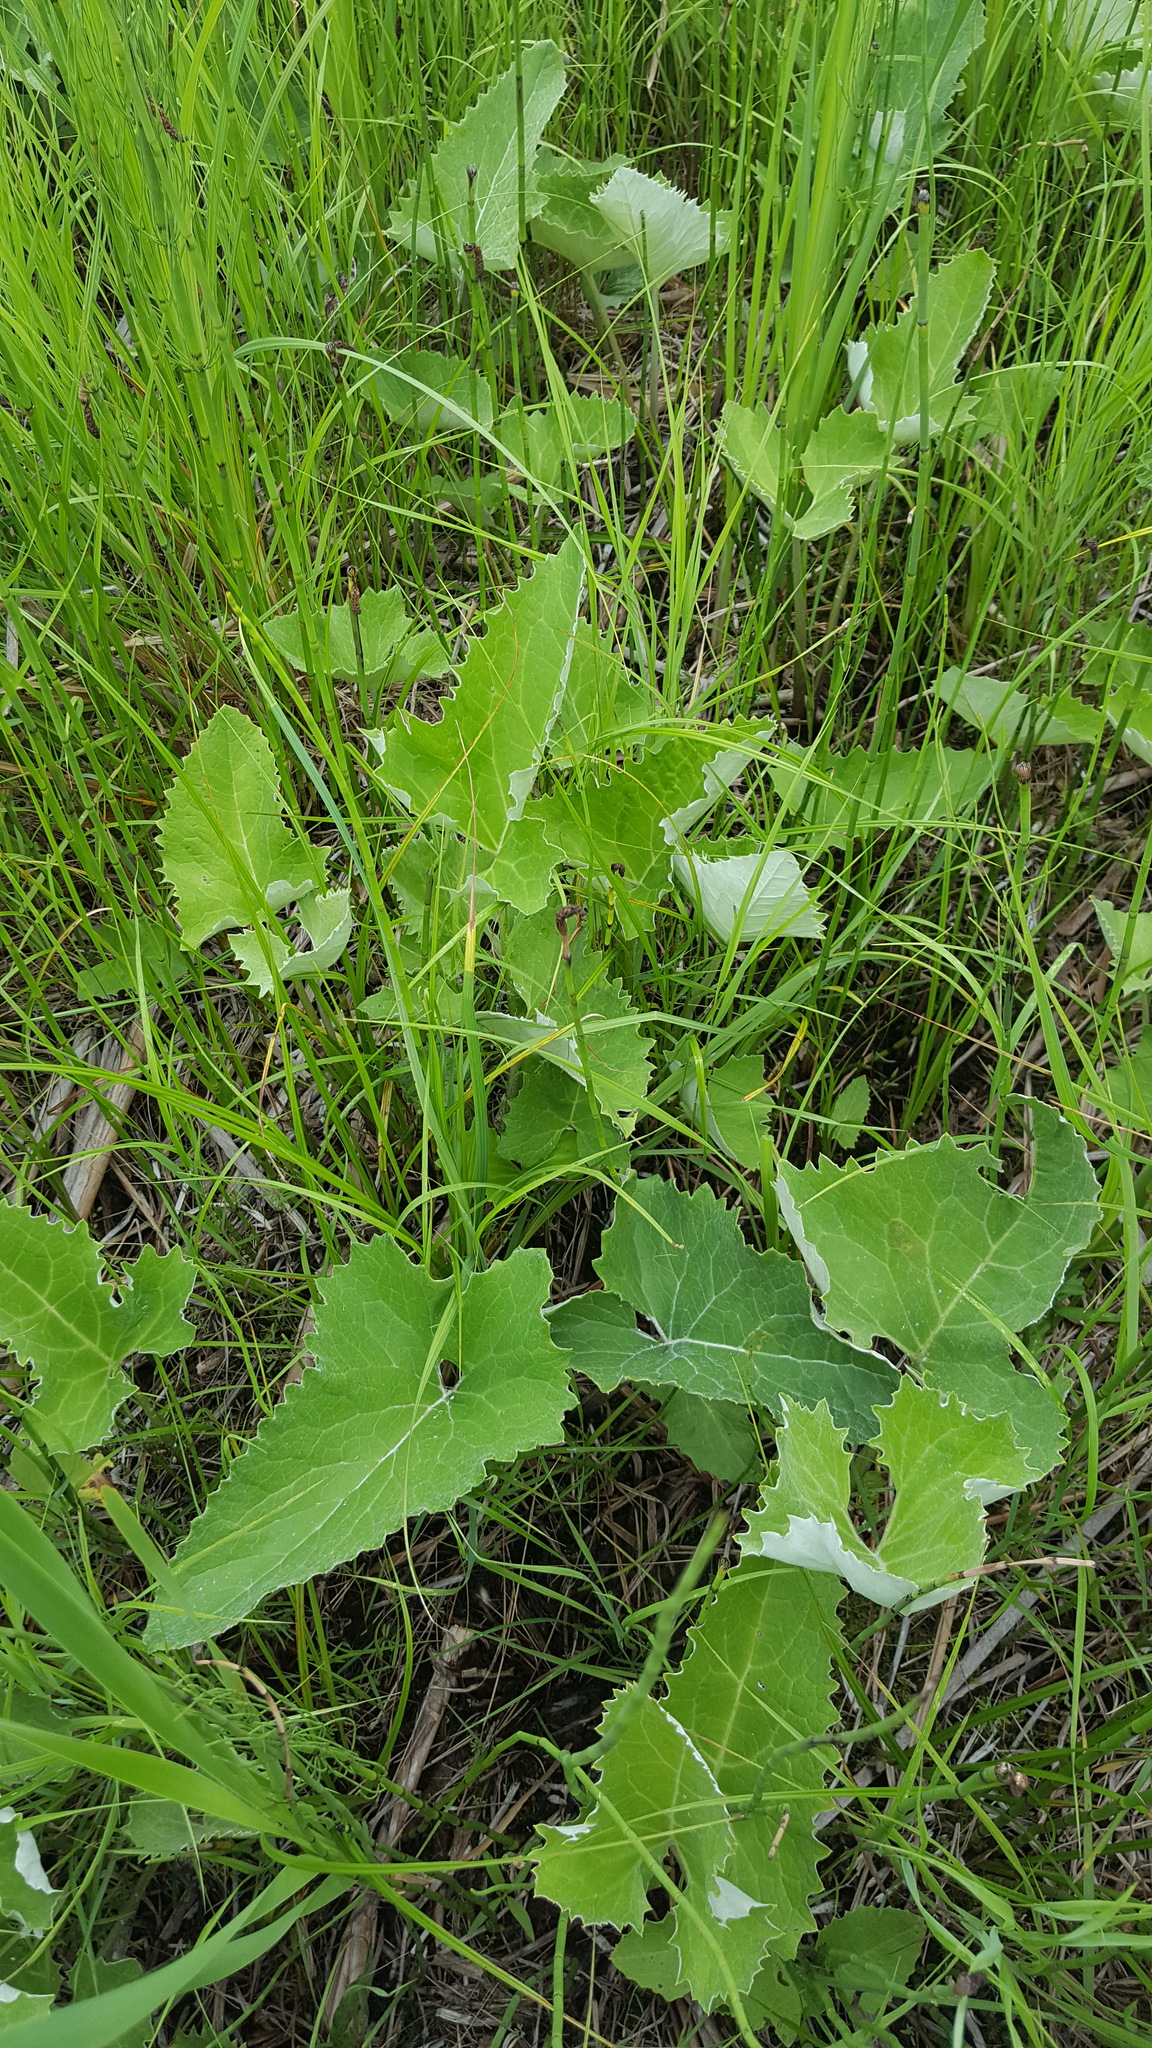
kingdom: Plantae
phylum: Tracheophyta
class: Magnoliopsida
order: Asterales
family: Asteraceae
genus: Petasites
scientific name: Petasites frigidus
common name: Arctic butterbur
